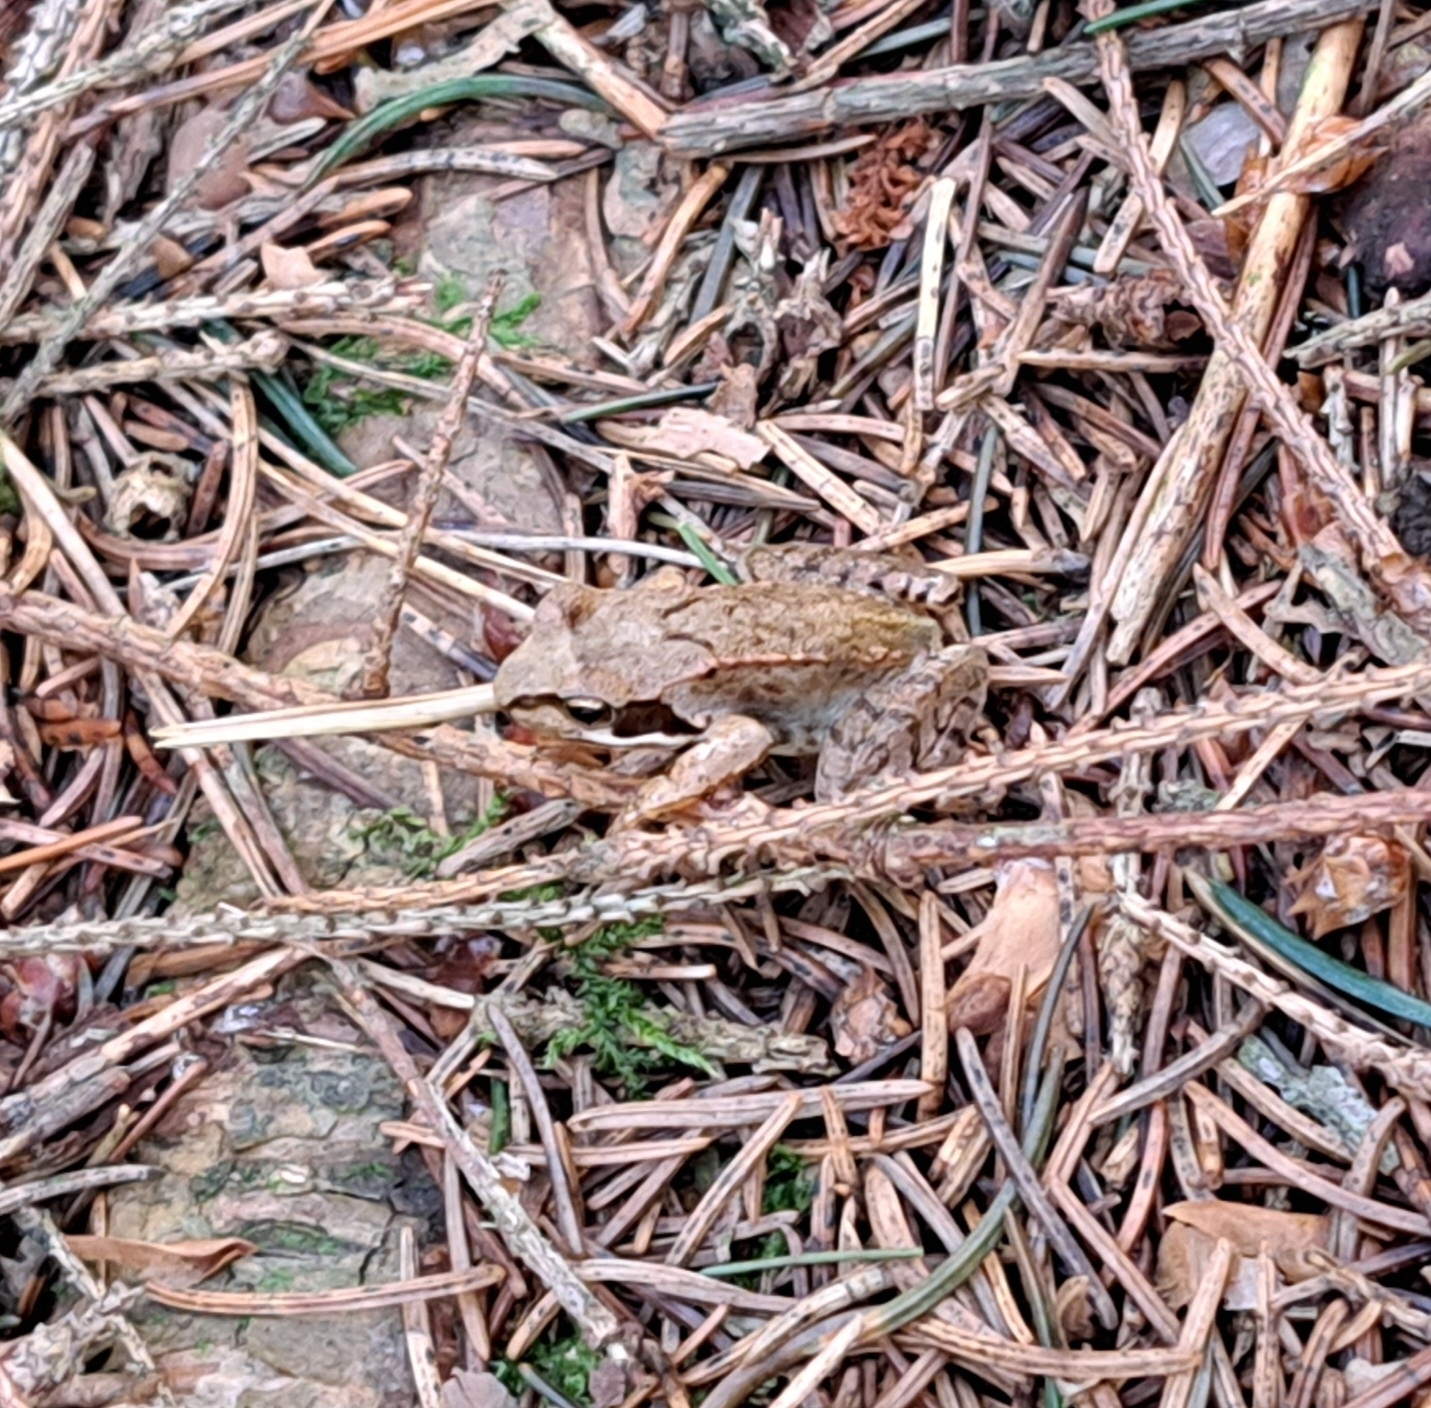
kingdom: Animalia
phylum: Chordata
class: Amphibia
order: Anura
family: Ranidae
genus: Rana
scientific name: Rana temporaria
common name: Common frog
